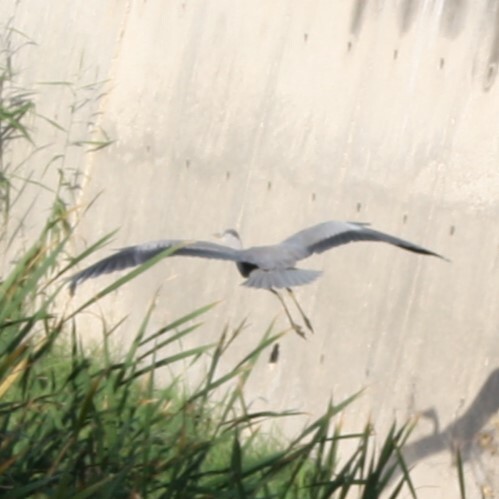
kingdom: Animalia
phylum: Chordata
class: Aves
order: Pelecaniformes
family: Ardeidae
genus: Ardea
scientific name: Ardea cinerea
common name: Grey heron
